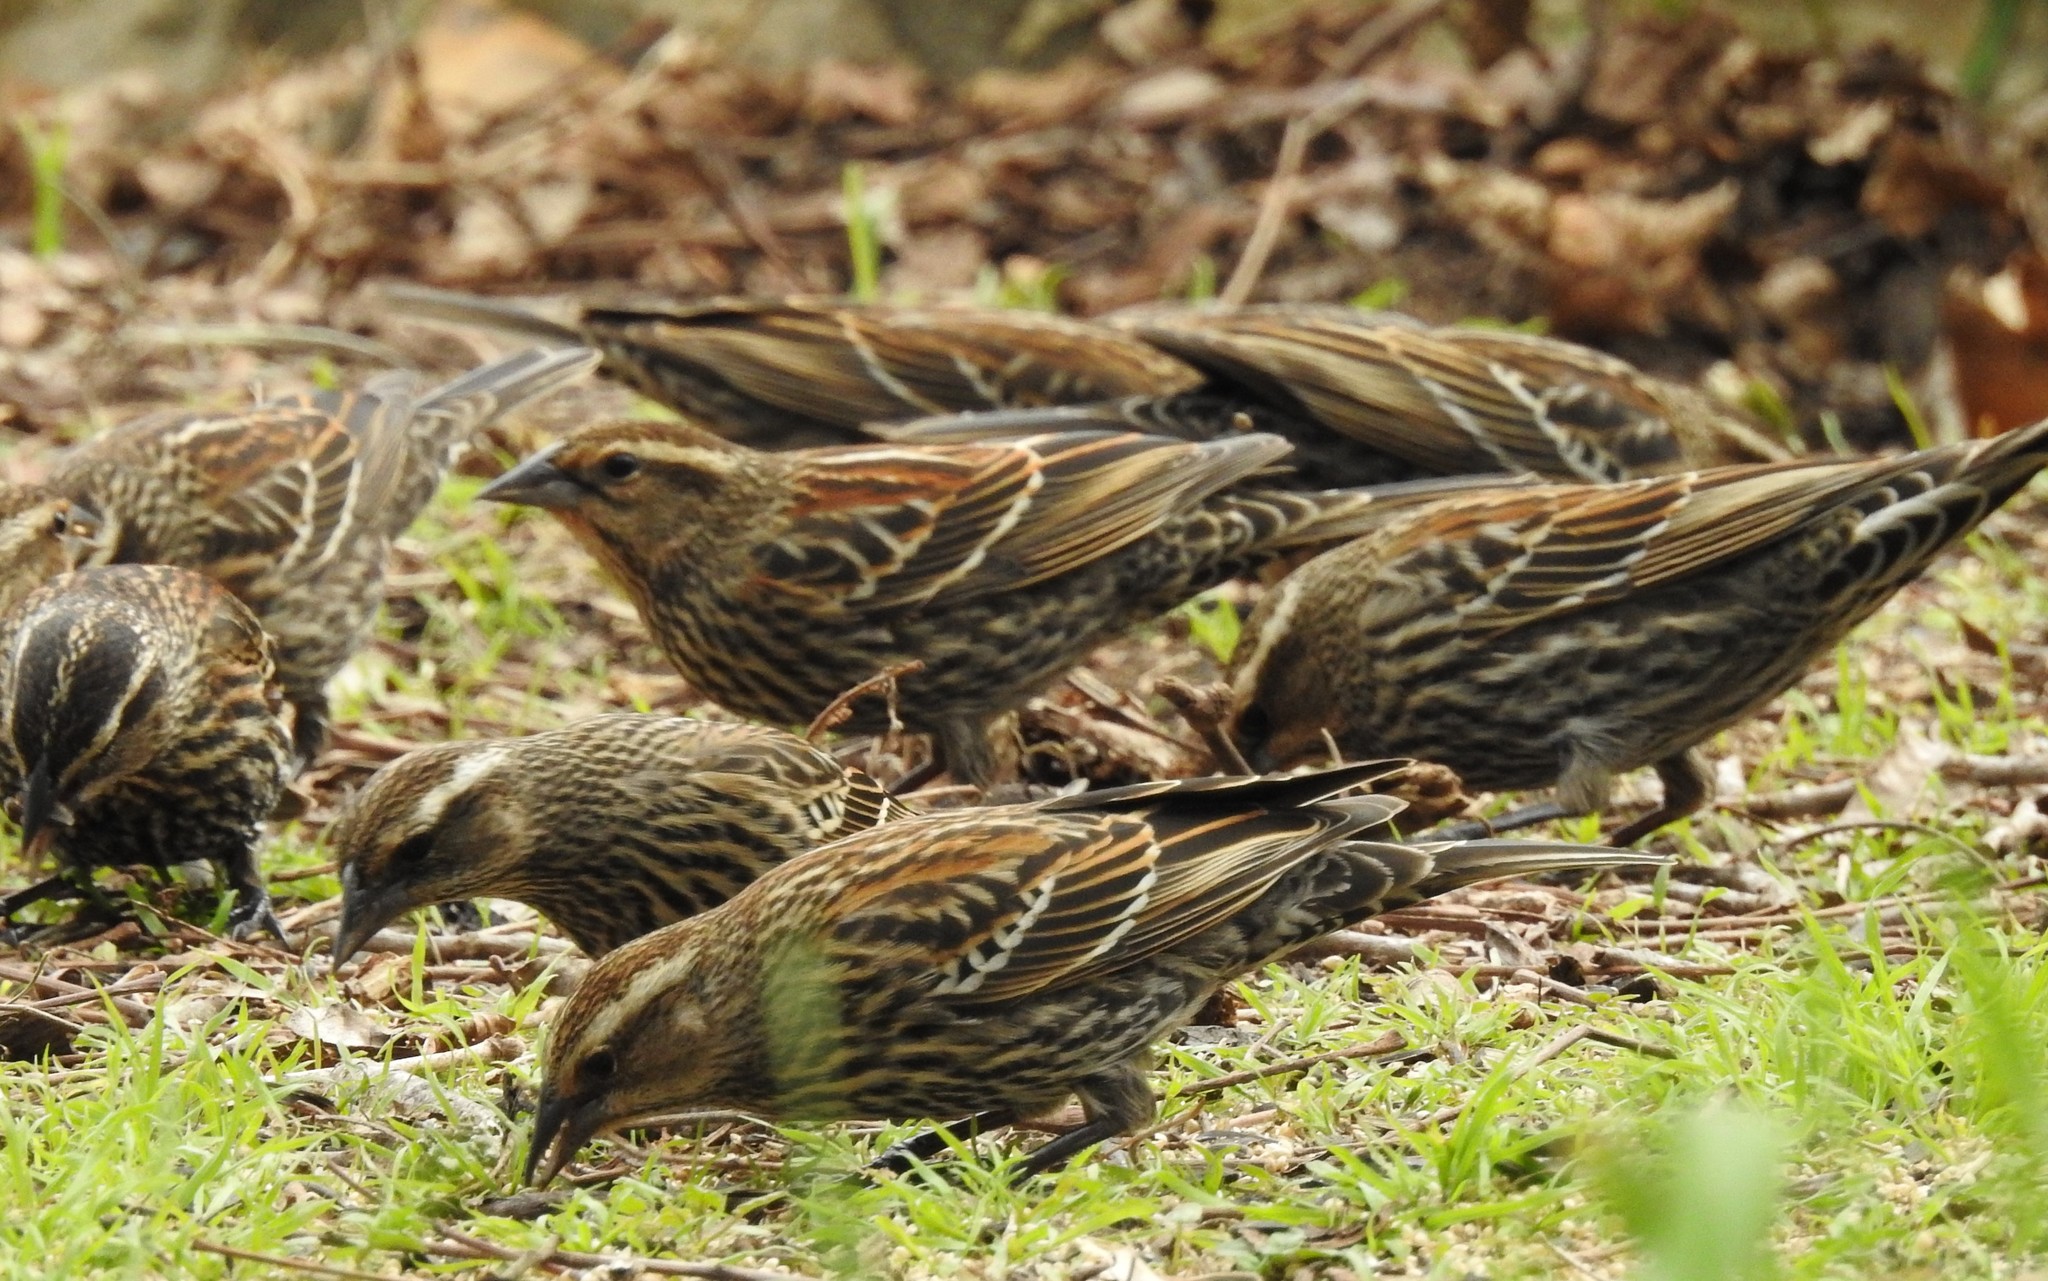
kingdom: Animalia
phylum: Chordata
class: Aves
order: Passeriformes
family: Icteridae
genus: Agelaius
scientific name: Agelaius phoeniceus
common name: Red-winged blackbird
